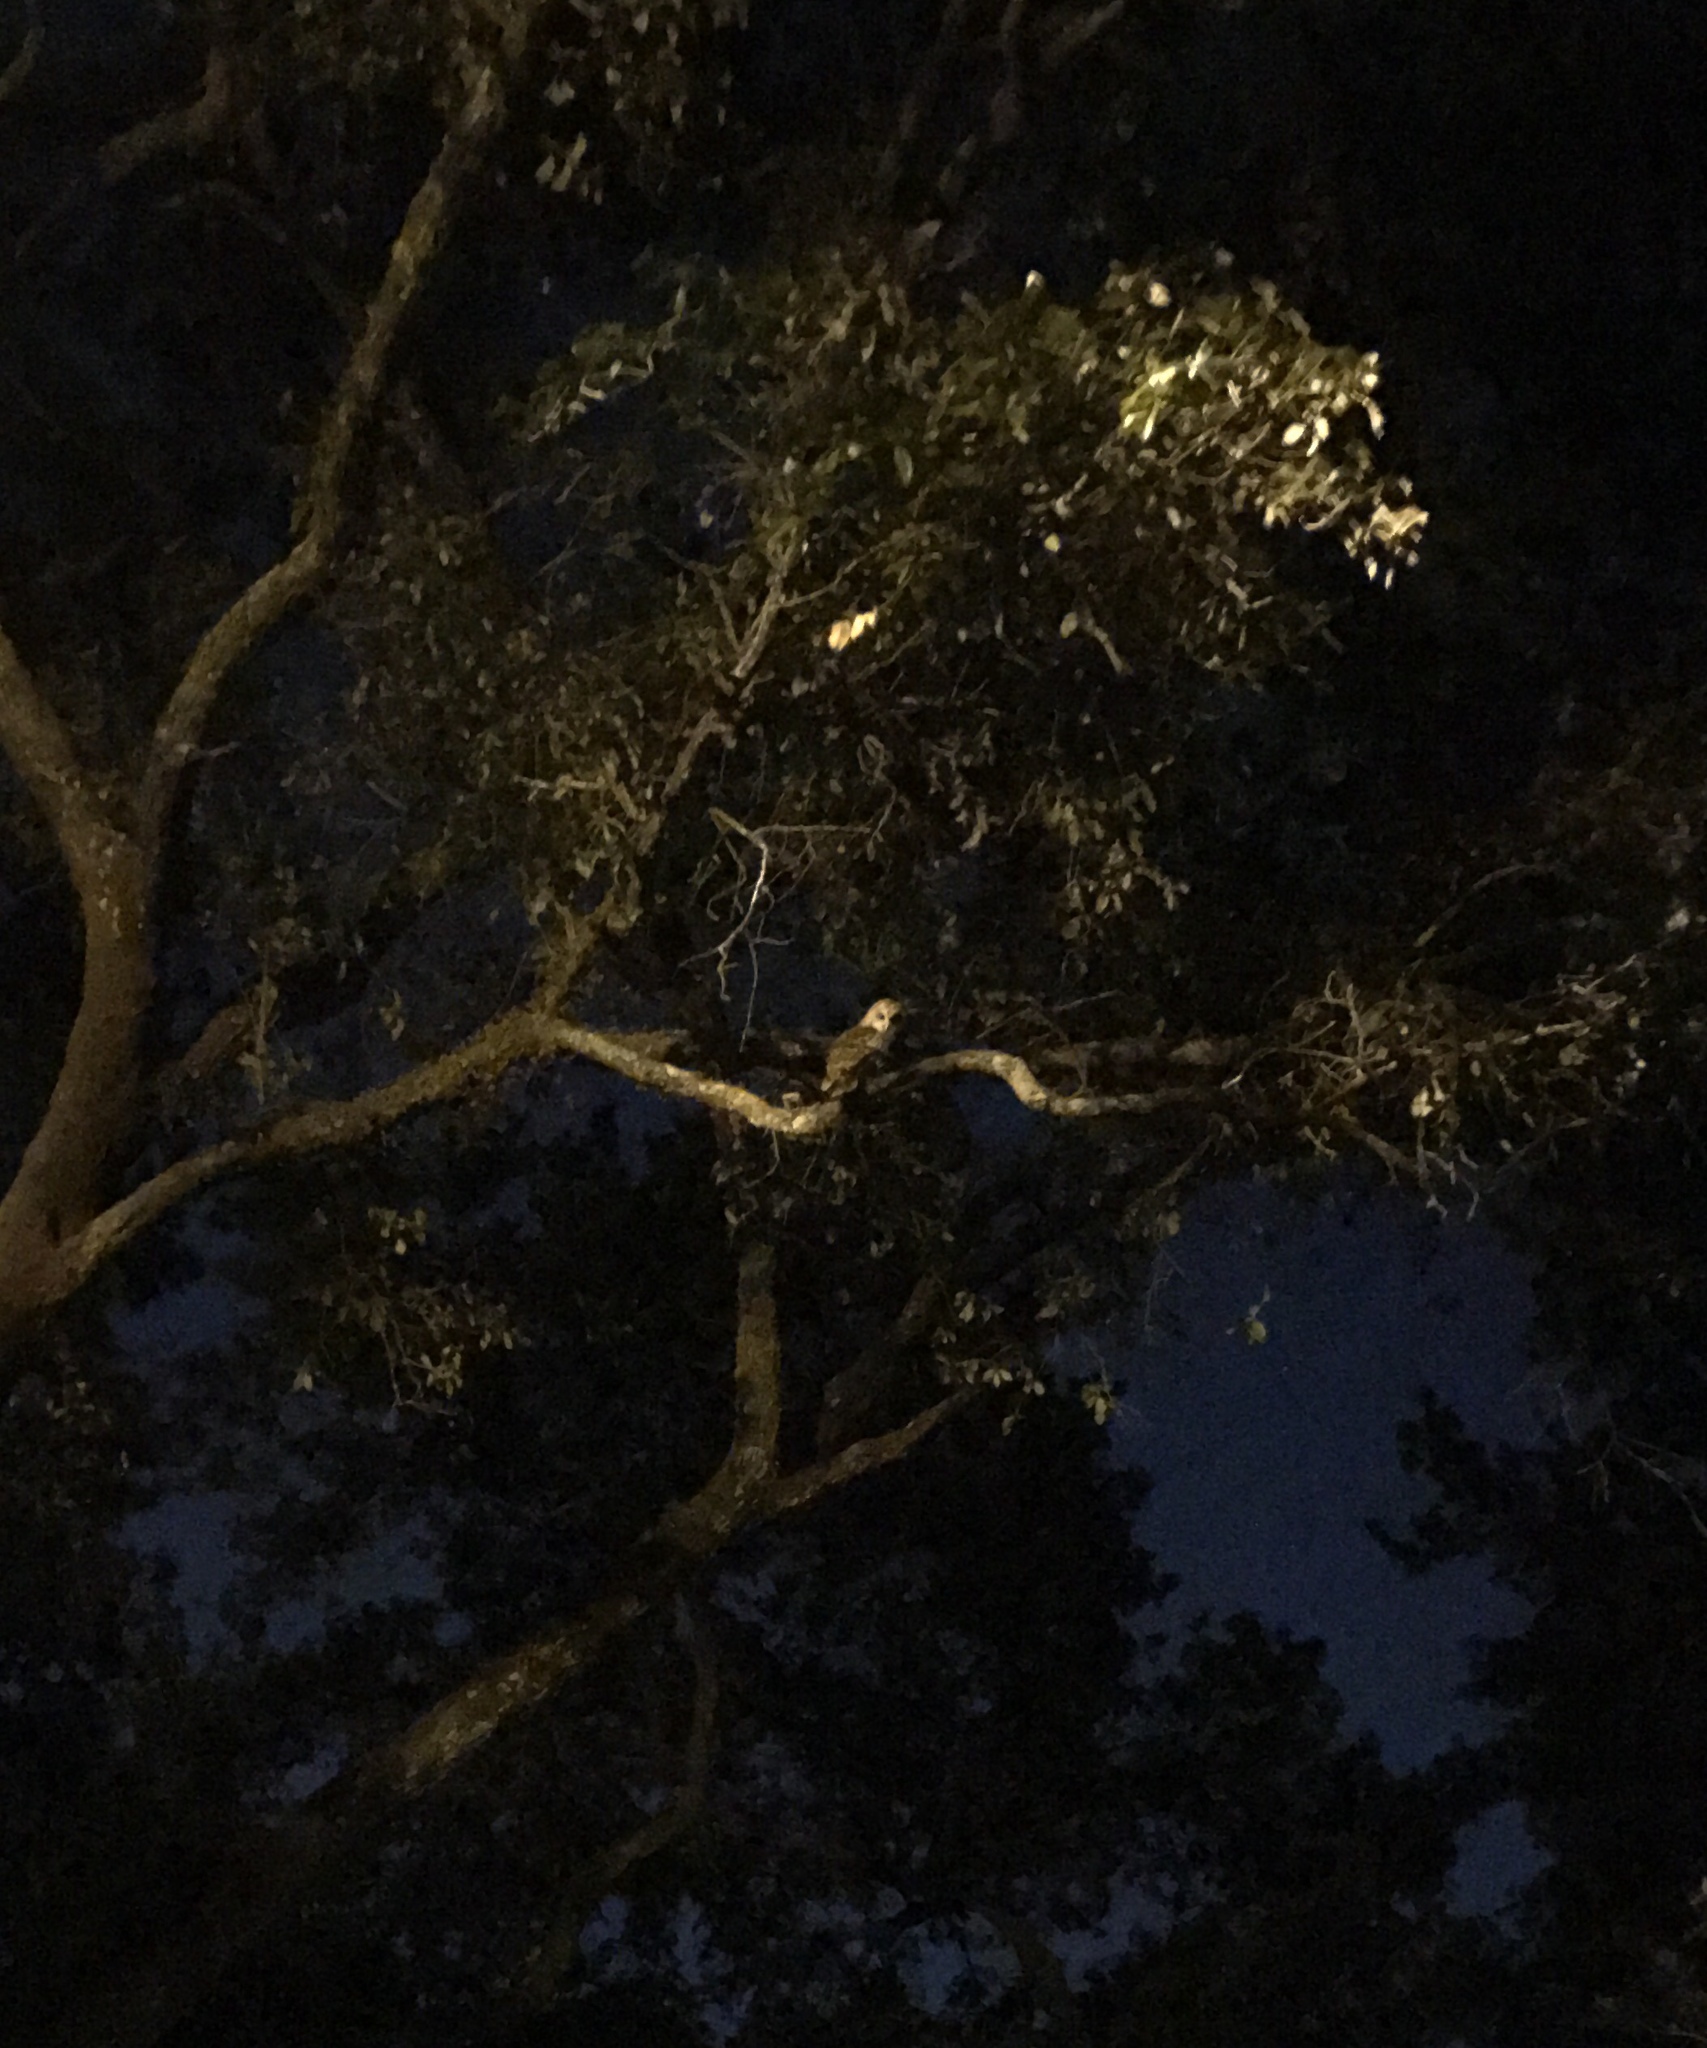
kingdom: Animalia
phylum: Chordata
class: Aves
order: Strigiformes
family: Strigidae
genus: Strix
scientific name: Strix varia
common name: Barred owl
